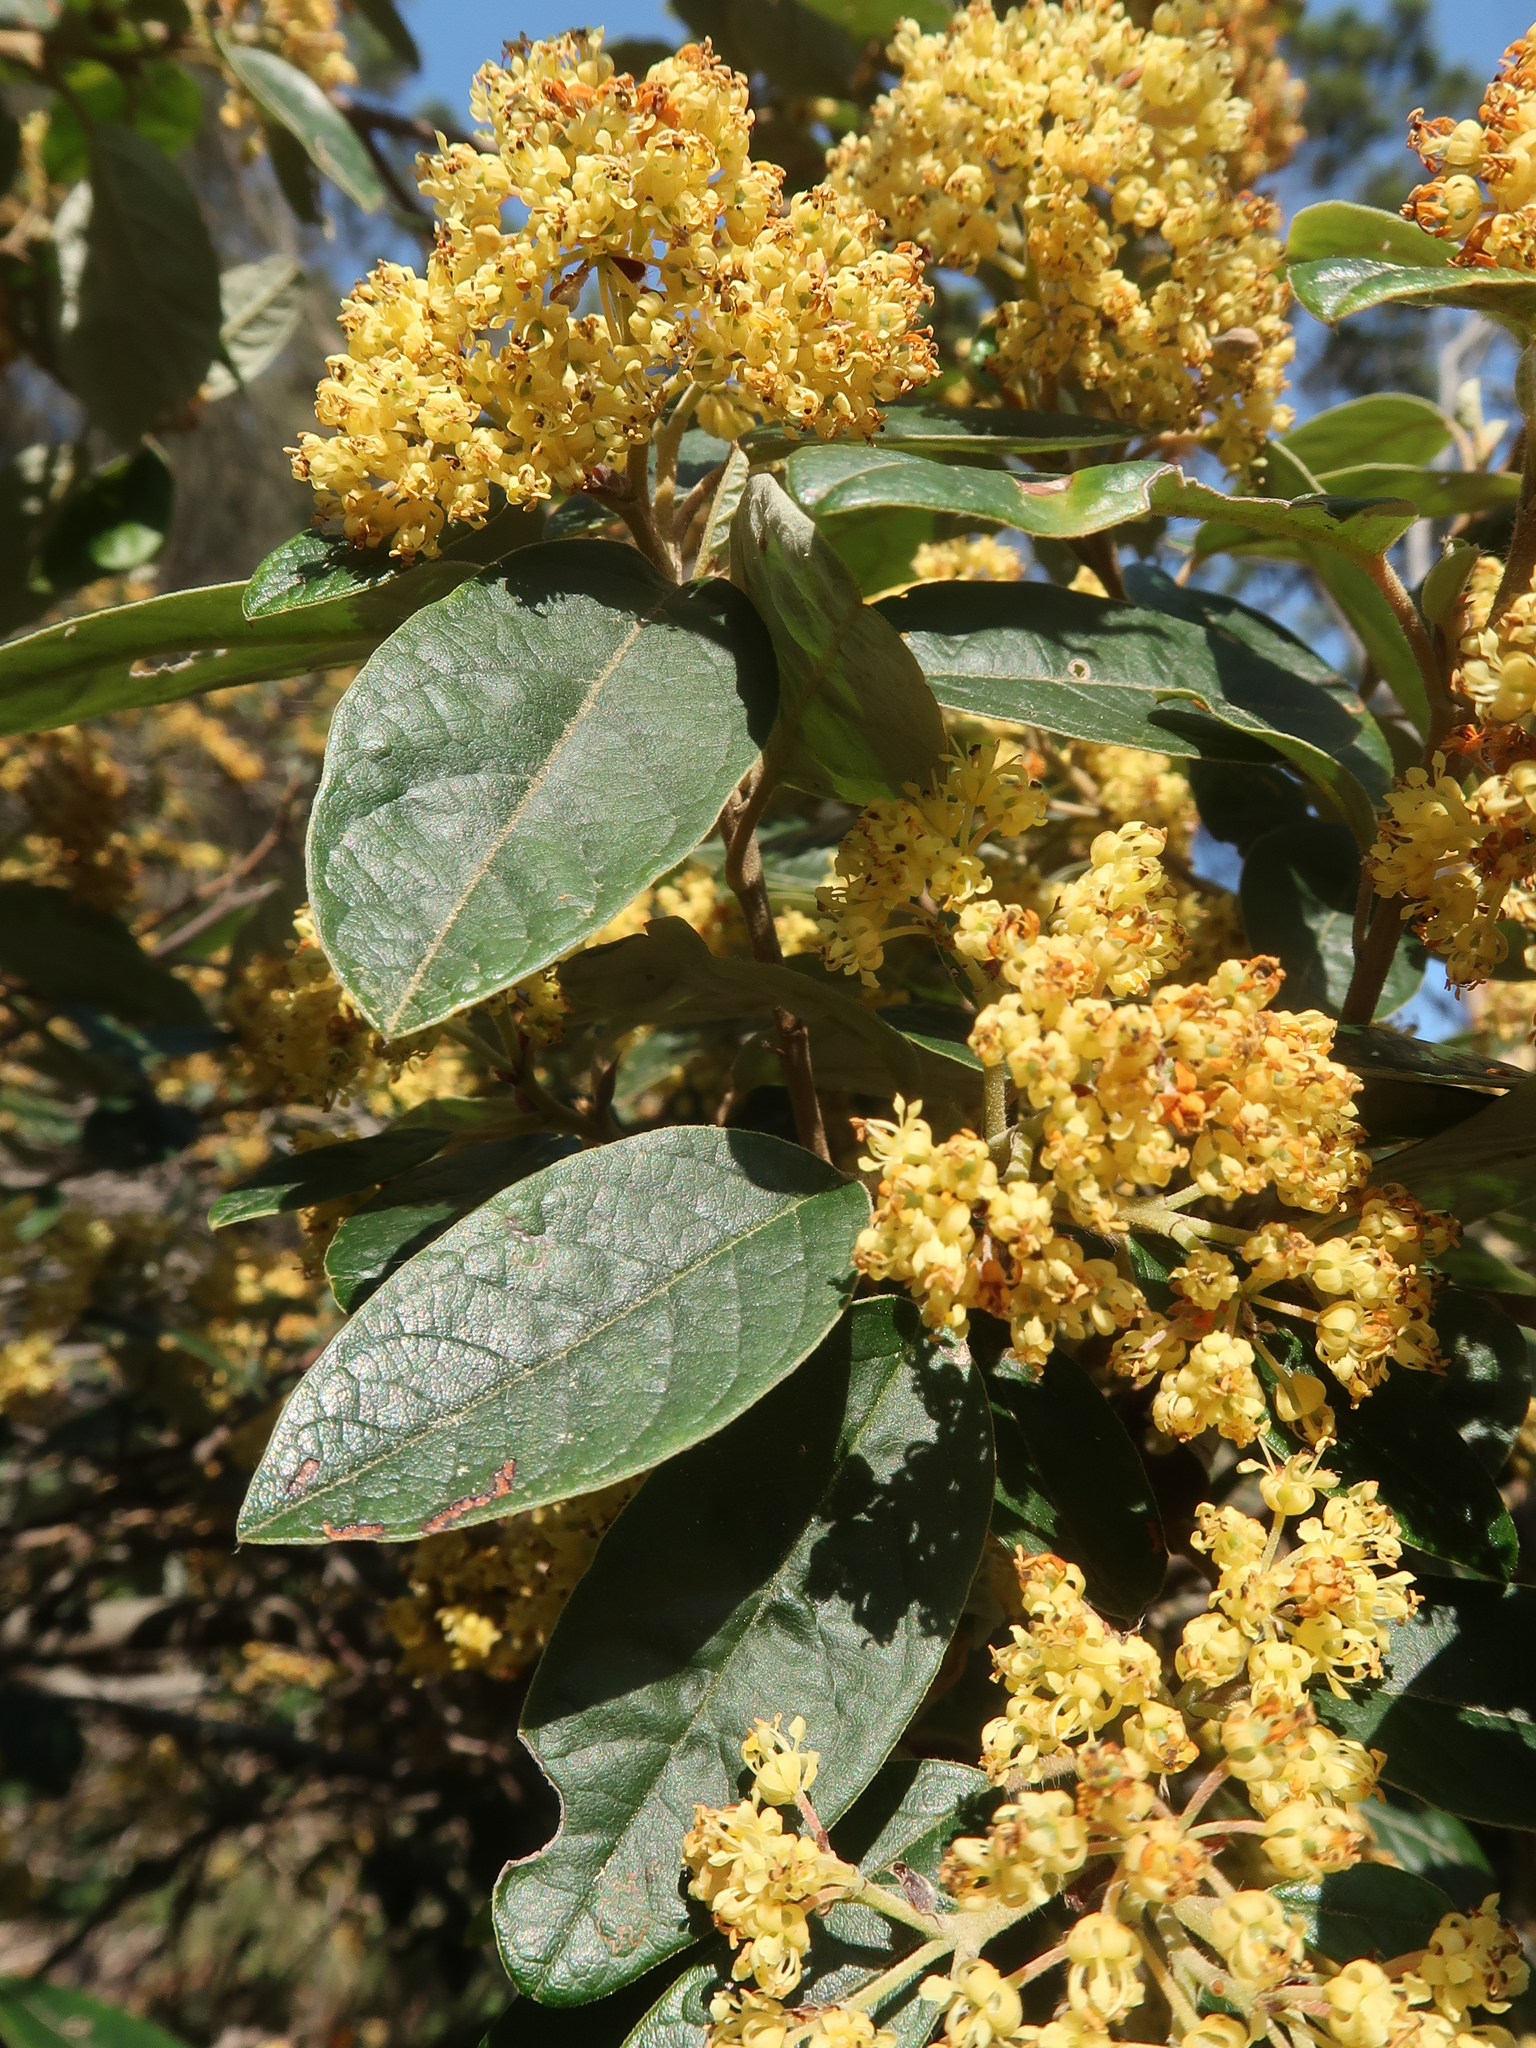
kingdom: Plantae
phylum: Tracheophyta
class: Magnoliopsida
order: Rosales
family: Rhamnaceae
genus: Pomaderris
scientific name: Pomaderris pilifera
